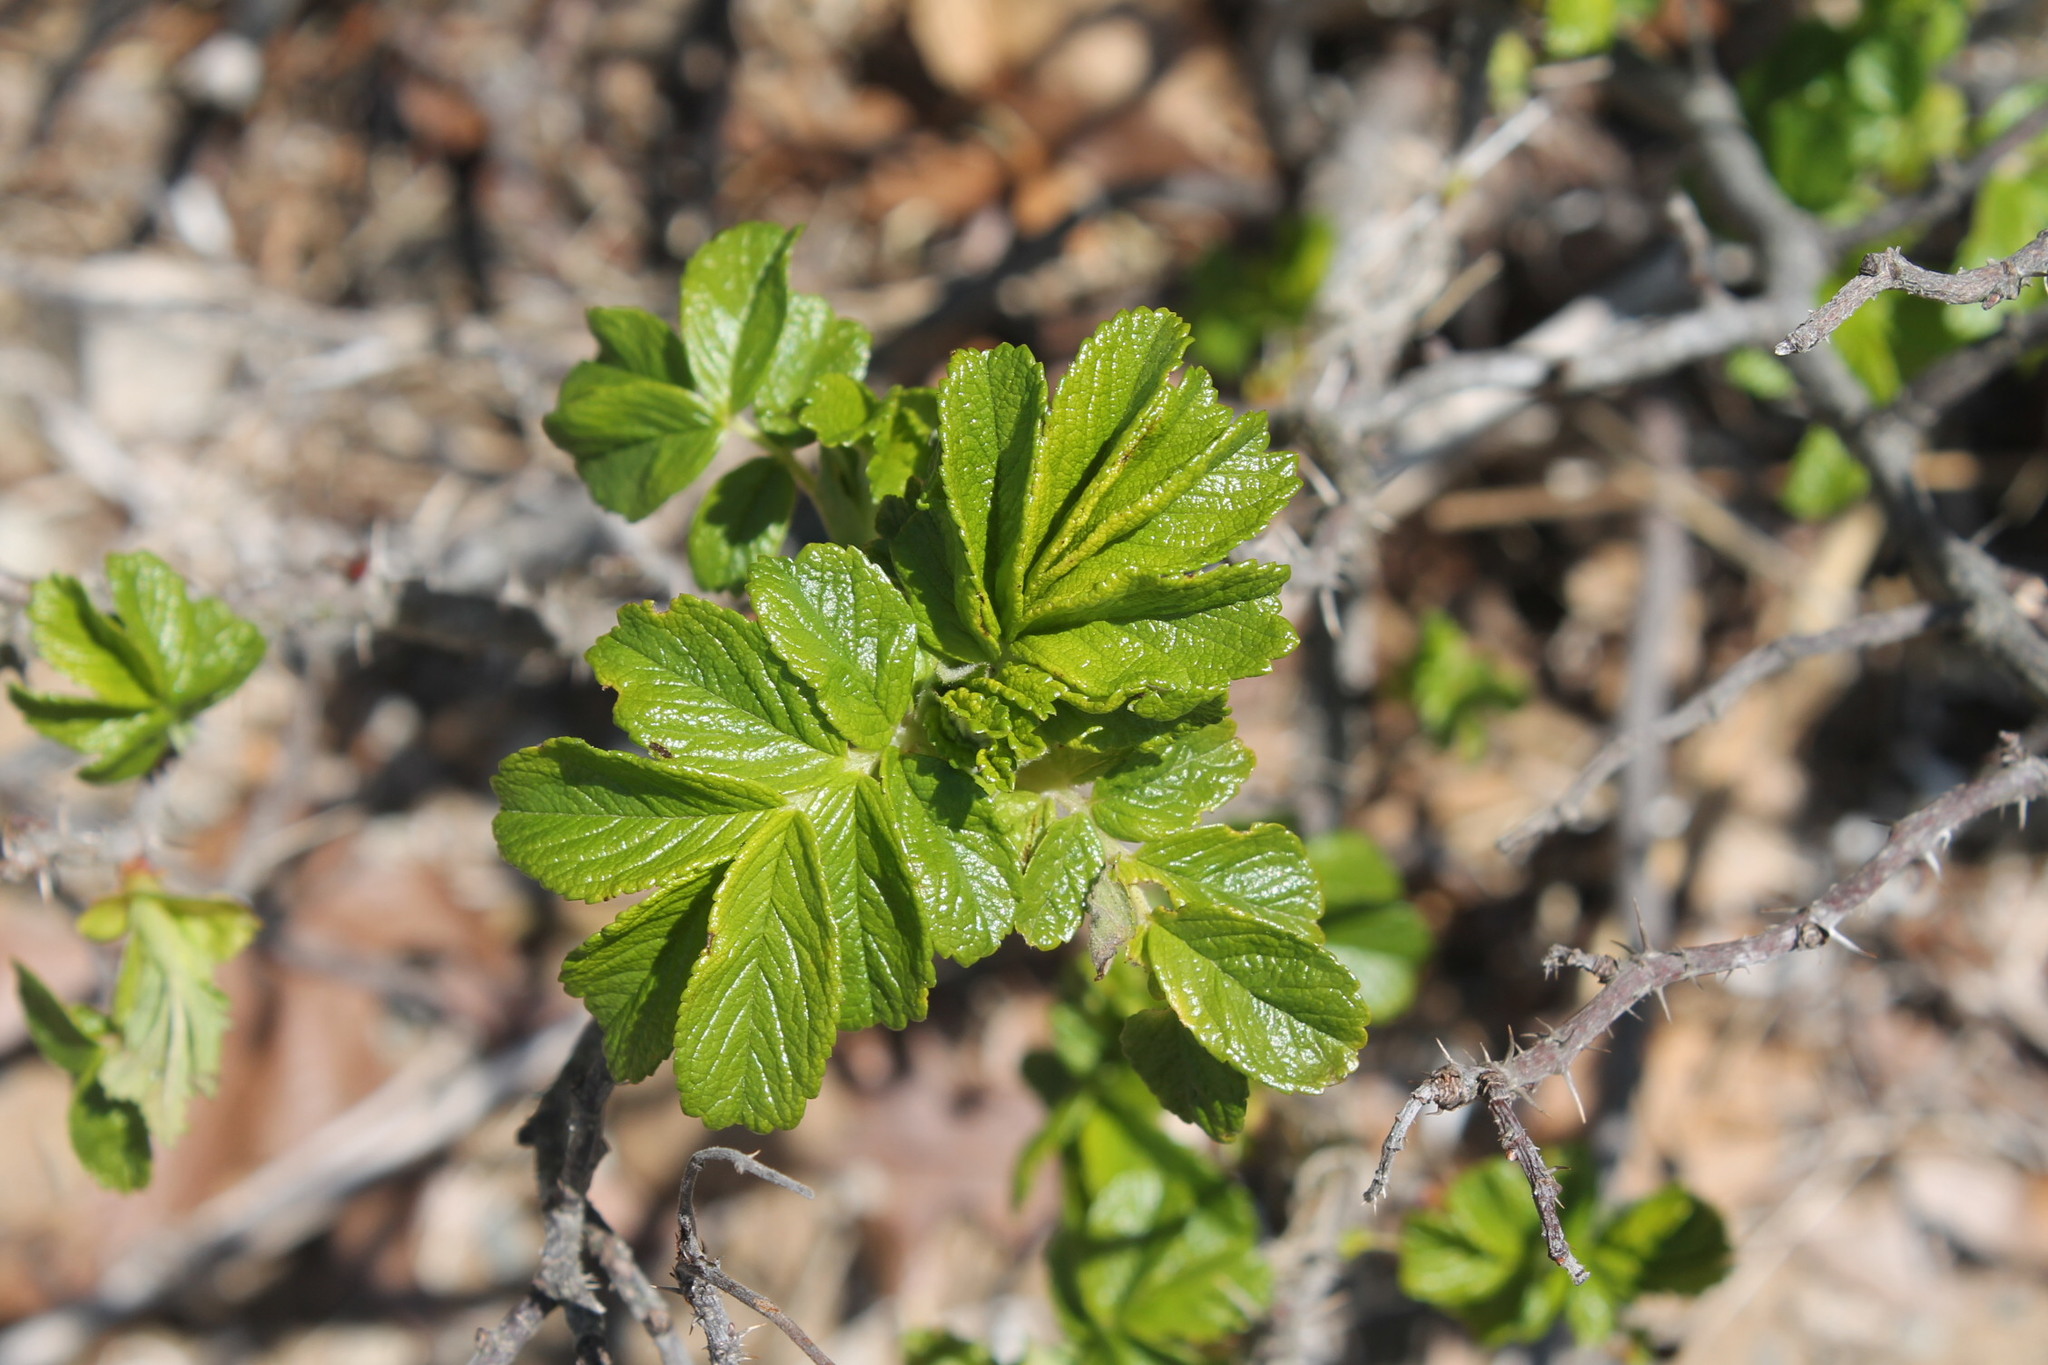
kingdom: Plantae
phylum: Tracheophyta
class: Magnoliopsida
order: Rosales
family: Rosaceae
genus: Rosa
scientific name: Rosa rugosa
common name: Japanese rose
